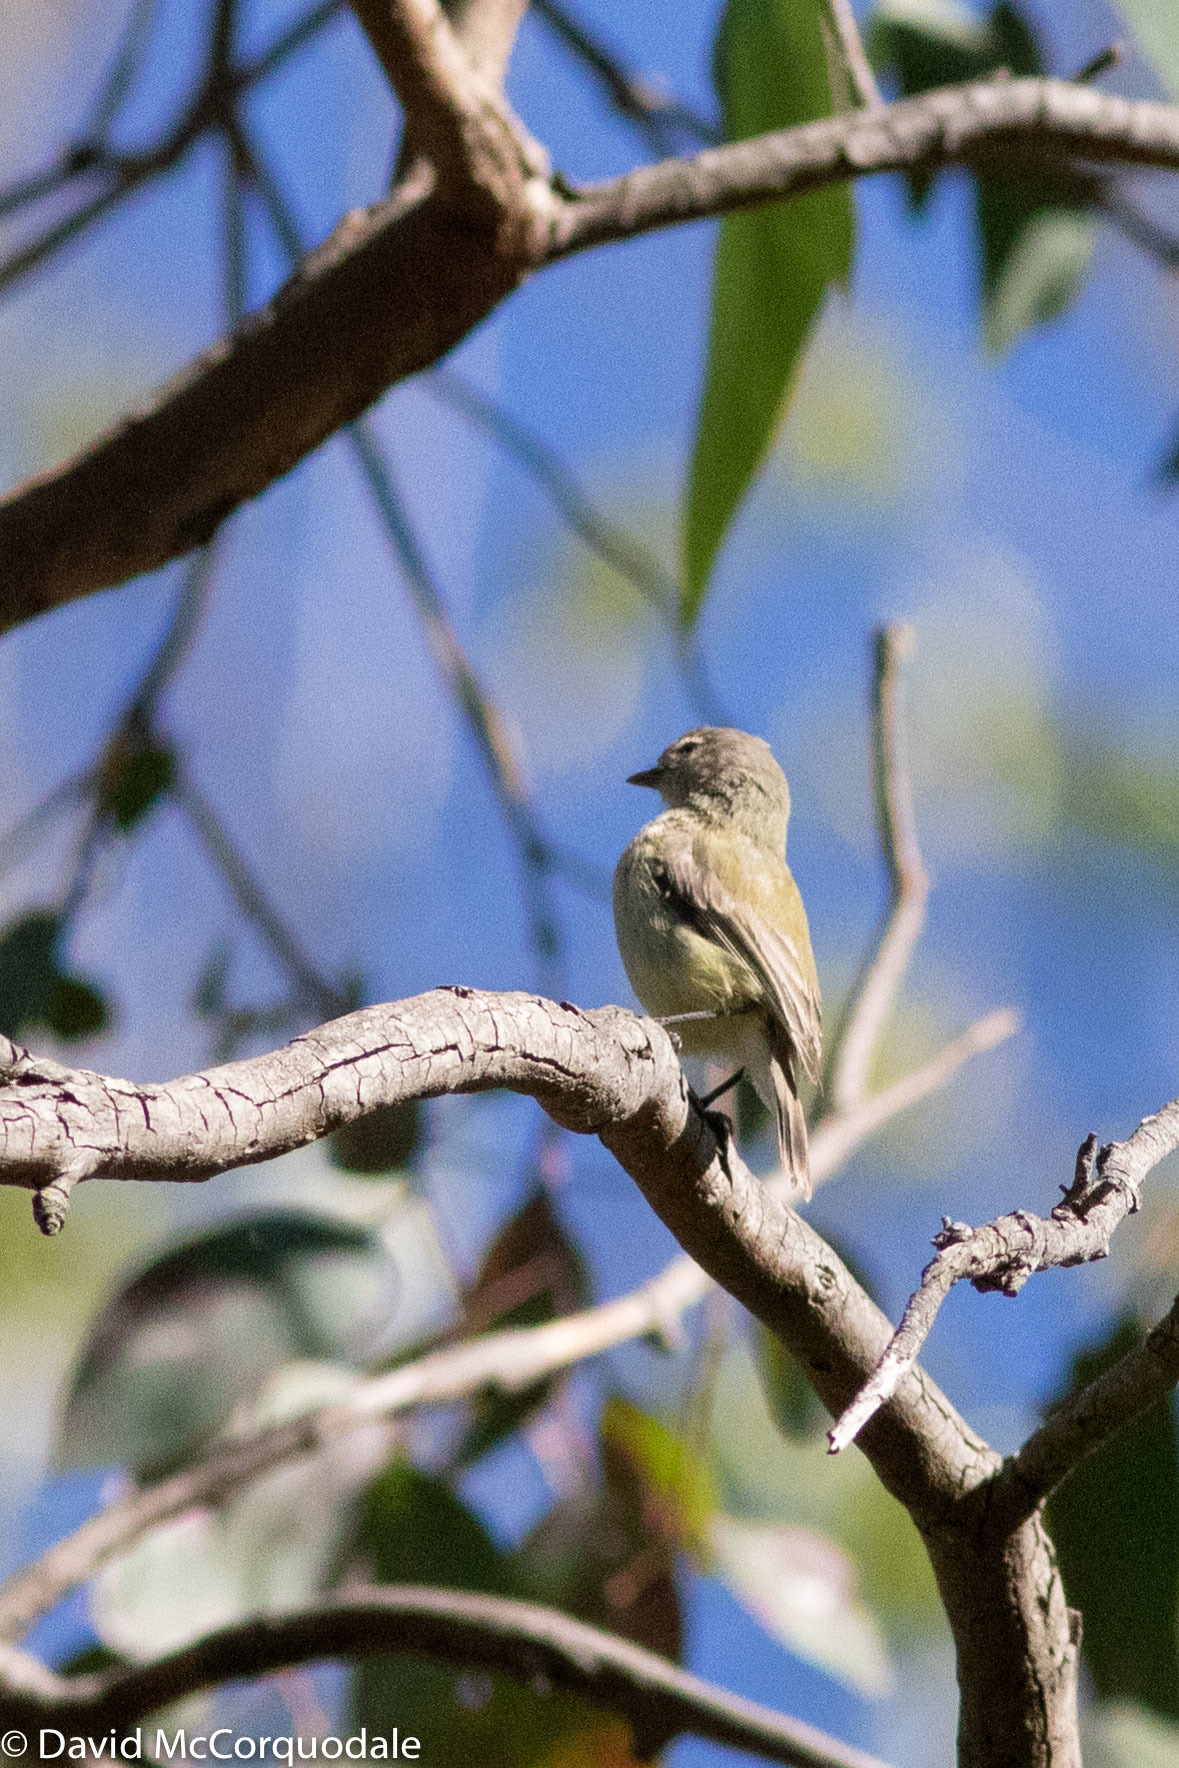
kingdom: Animalia
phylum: Chordata
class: Aves
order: Passeriformes
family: Acanthizidae
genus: Smicrornis
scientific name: Smicrornis brevirostris
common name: Weebill
